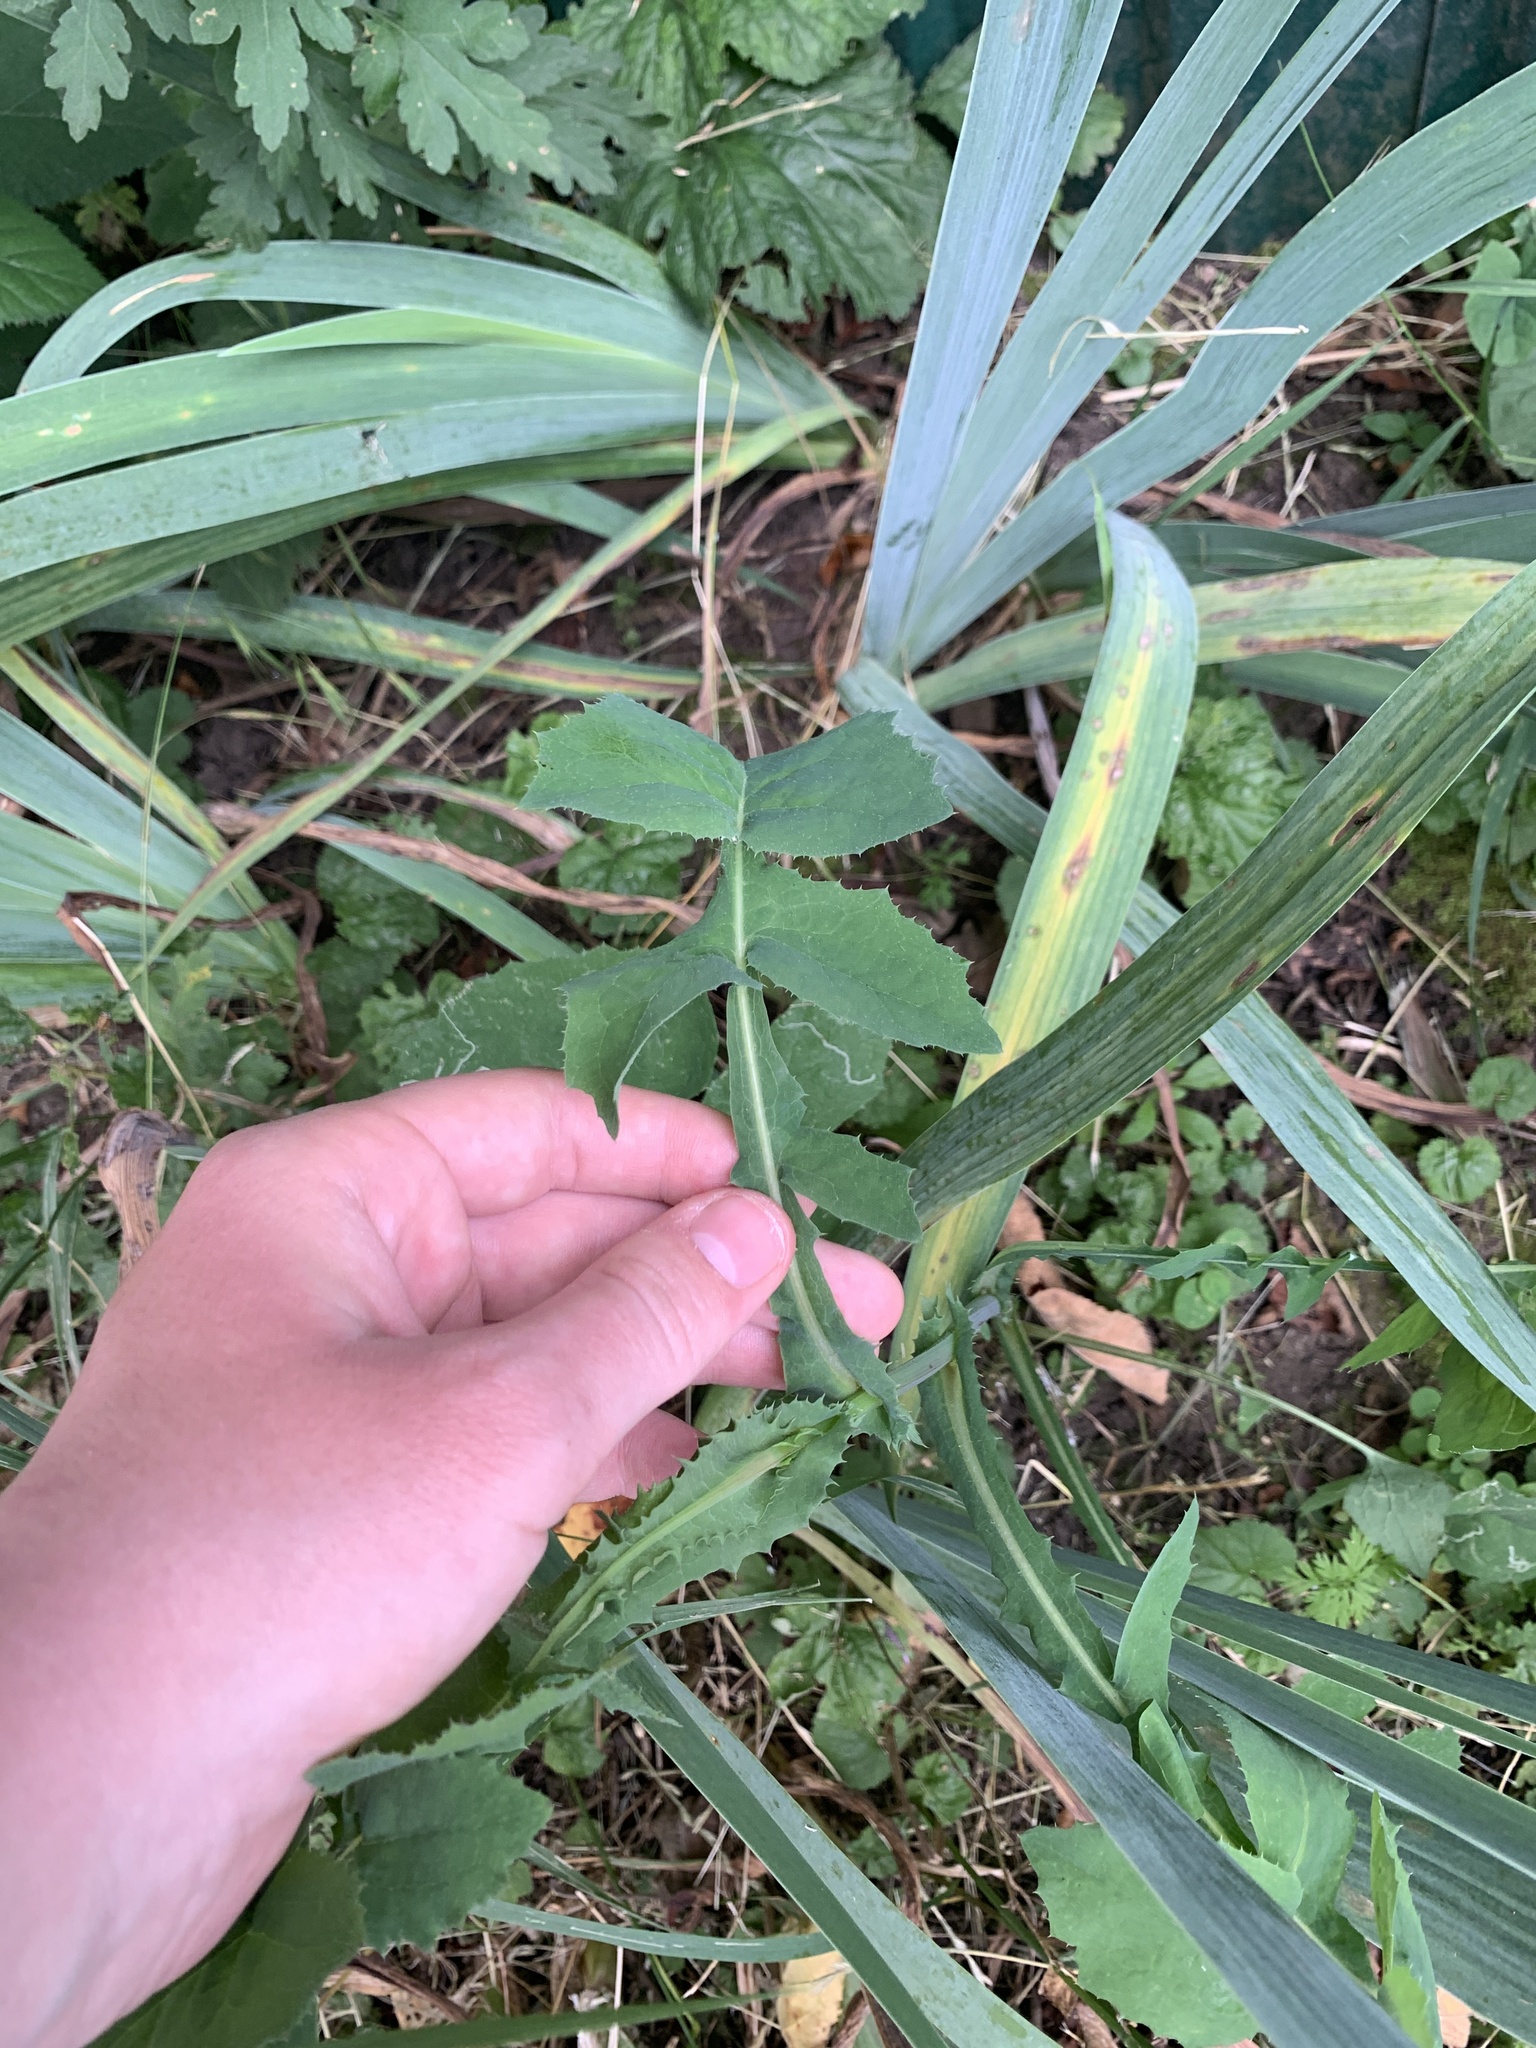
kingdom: Plantae
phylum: Tracheophyta
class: Magnoliopsida
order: Asterales
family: Asteraceae
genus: Sonchus
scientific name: Sonchus oleraceus
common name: Common sowthistle
